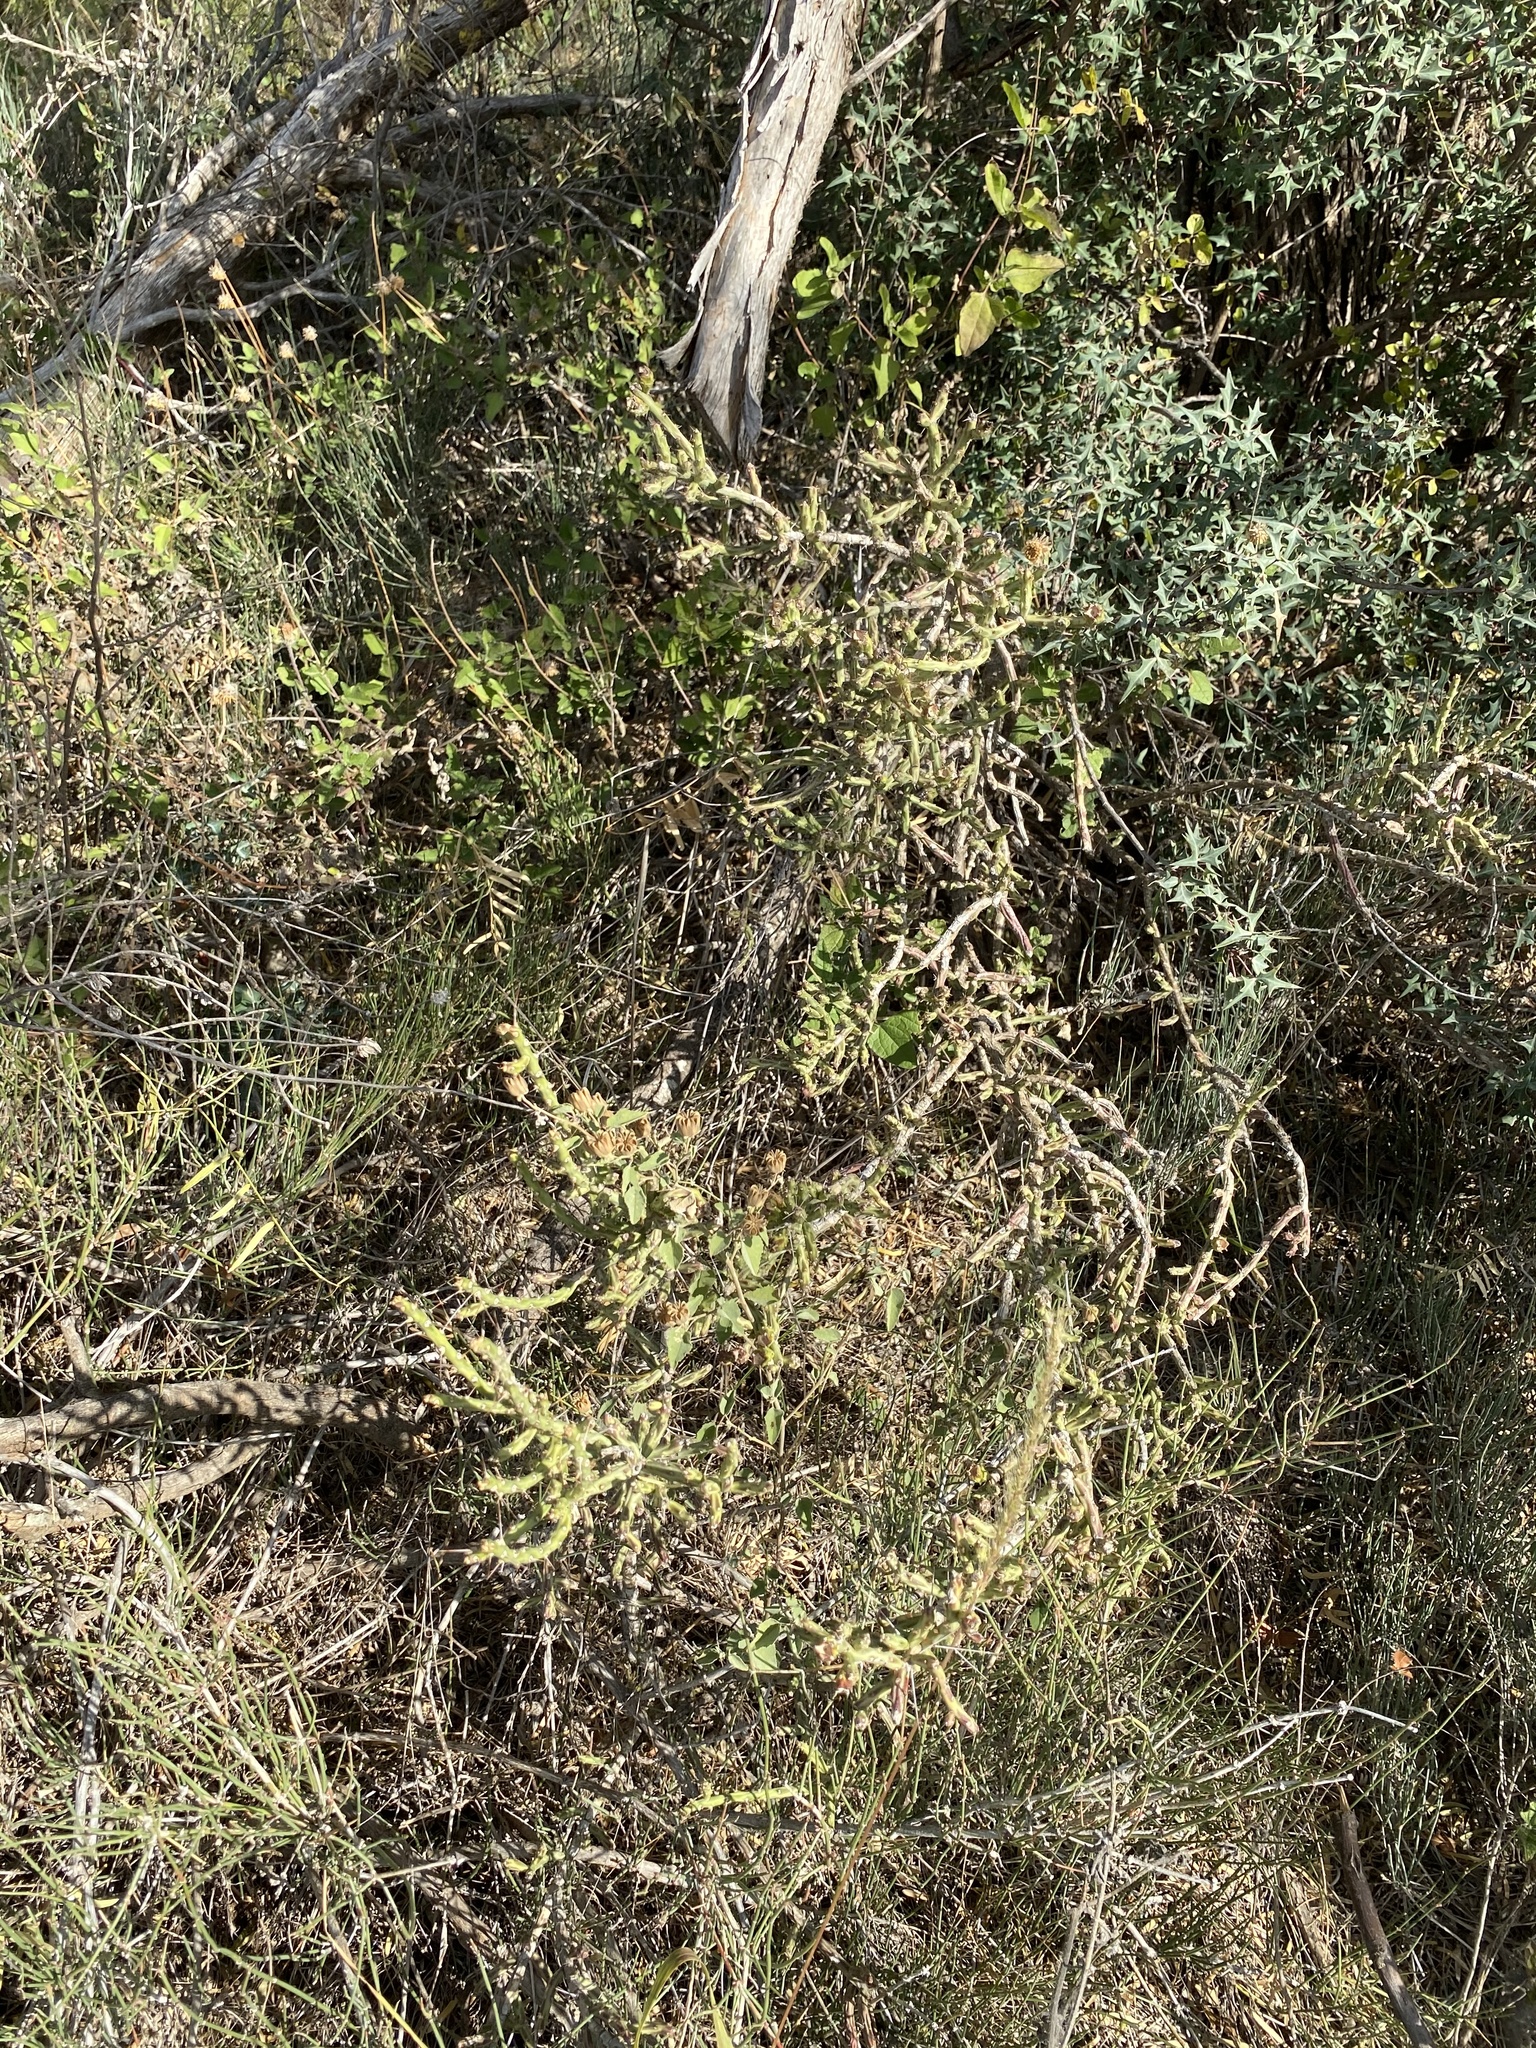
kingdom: Plantae
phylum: Tracheophyta
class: Magnoliopsida
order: Caryophyllales
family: Cactaceae
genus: Cylindropuntia
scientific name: Cylindropuntia leptocaulis
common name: Christmas cactus
